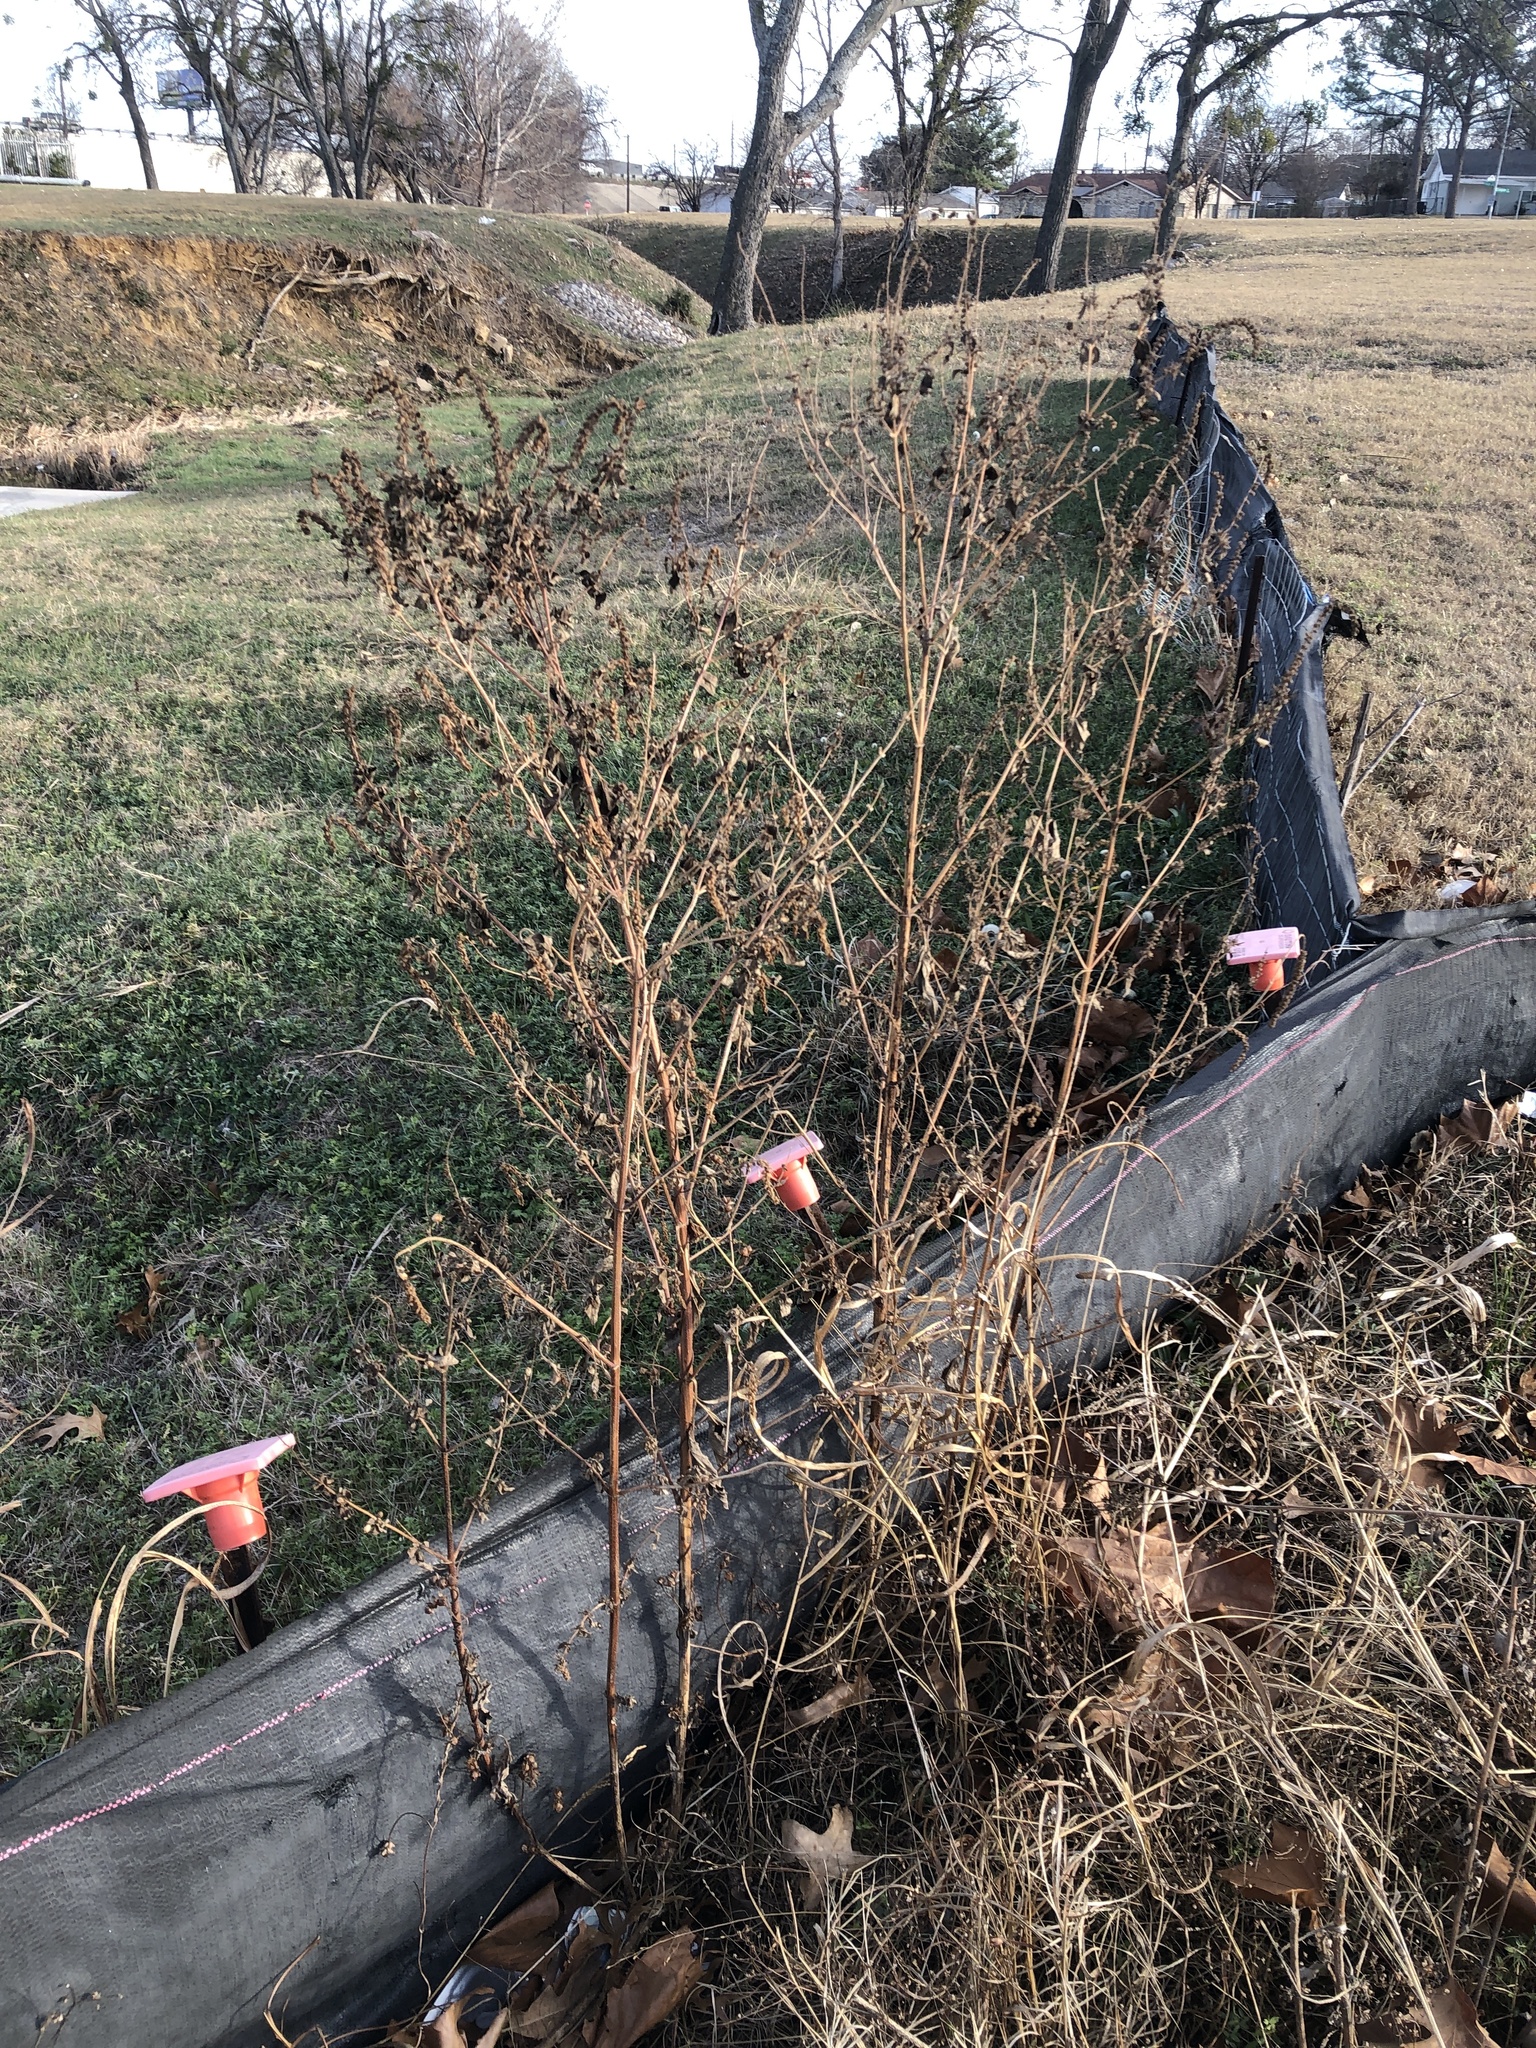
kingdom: Plantae
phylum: Tracheophyta
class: Magnoliopsida
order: Asterales
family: Asteraceae
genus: Ambrosia
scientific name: Ambrosia trifida
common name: Giant ragweed
